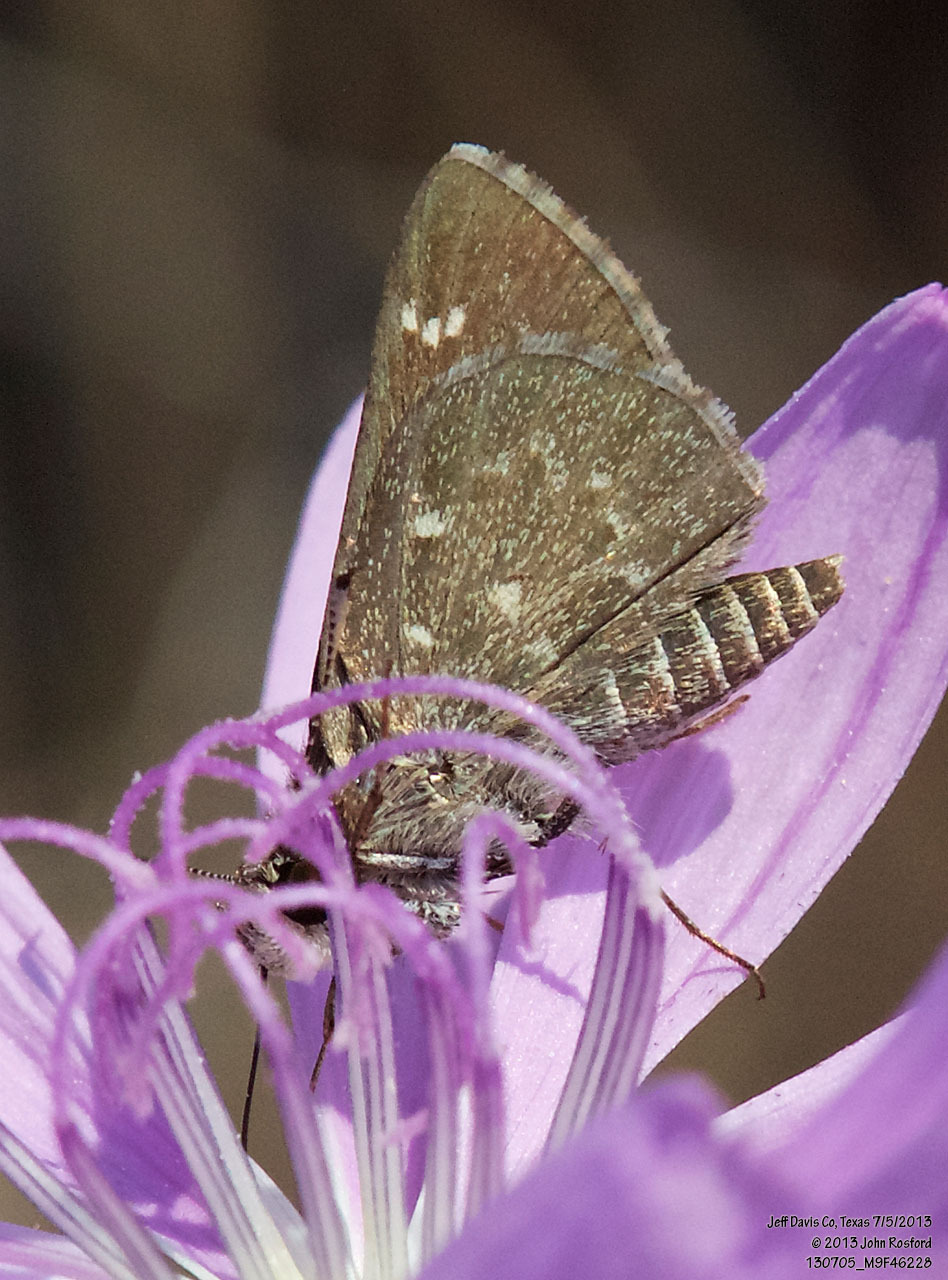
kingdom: Animalia
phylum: Arthropoda
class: Insecta
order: Lepidoptera
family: Hesperiidae
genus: Mastor
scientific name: Mastor celia
